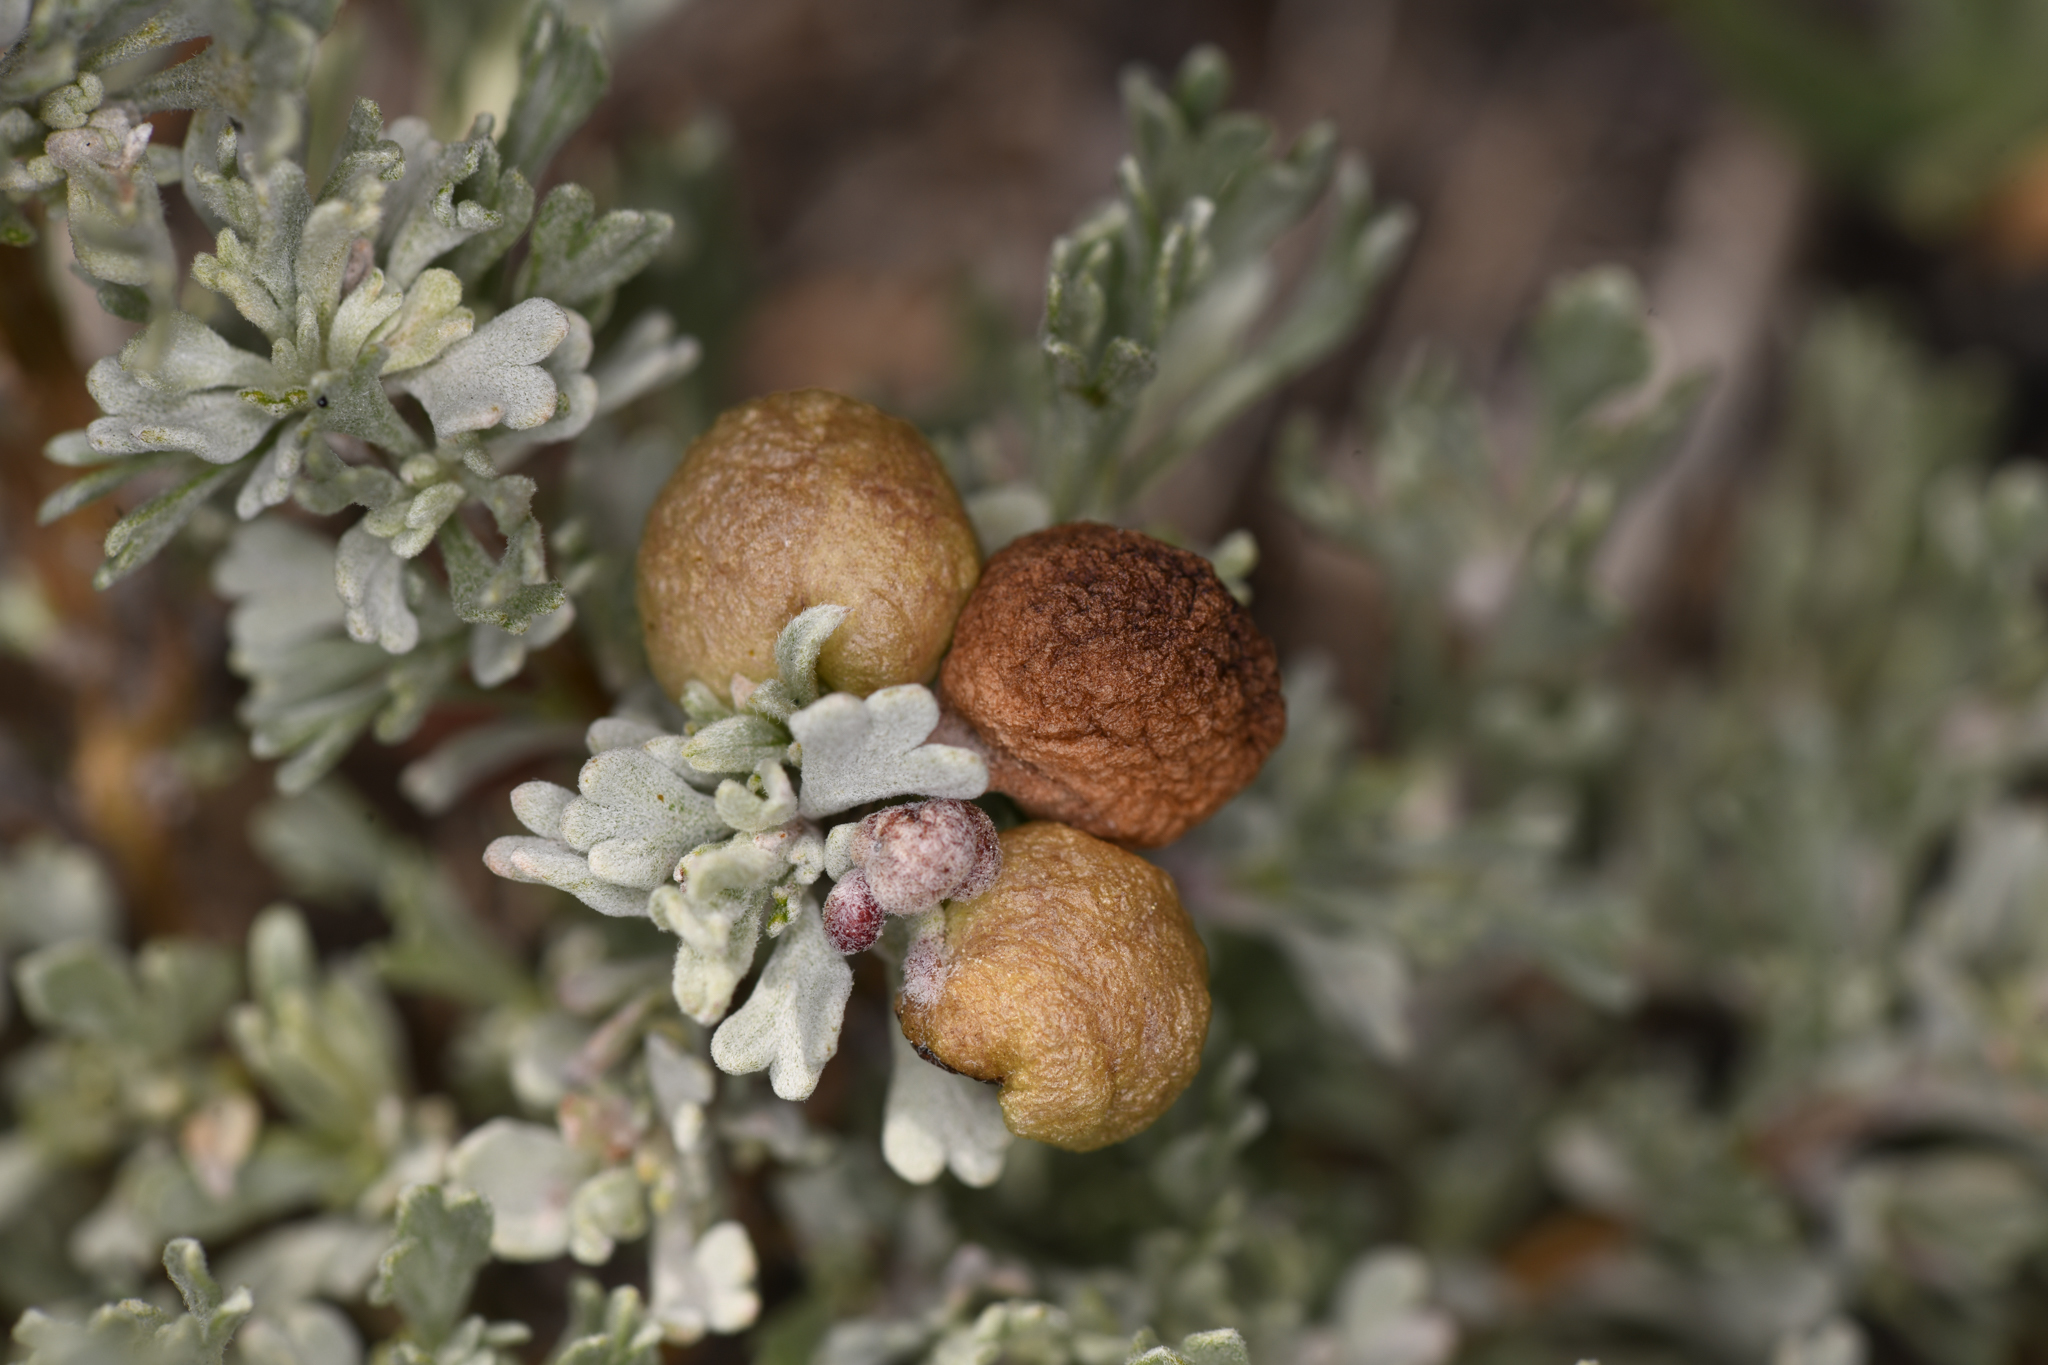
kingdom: Animalia
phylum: Arthropoda
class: Insecta
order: Diptera
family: Cecidomyiidae
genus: Rhopalomyia
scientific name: Rhopalomyia pomum
